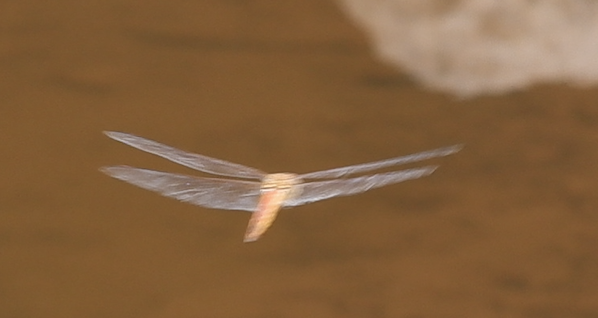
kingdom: Animalia
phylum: Arthropoda
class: Insecta
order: Odonata
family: Libellulidae
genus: Pantala
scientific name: Pantala flavescens
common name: Wandering glider
